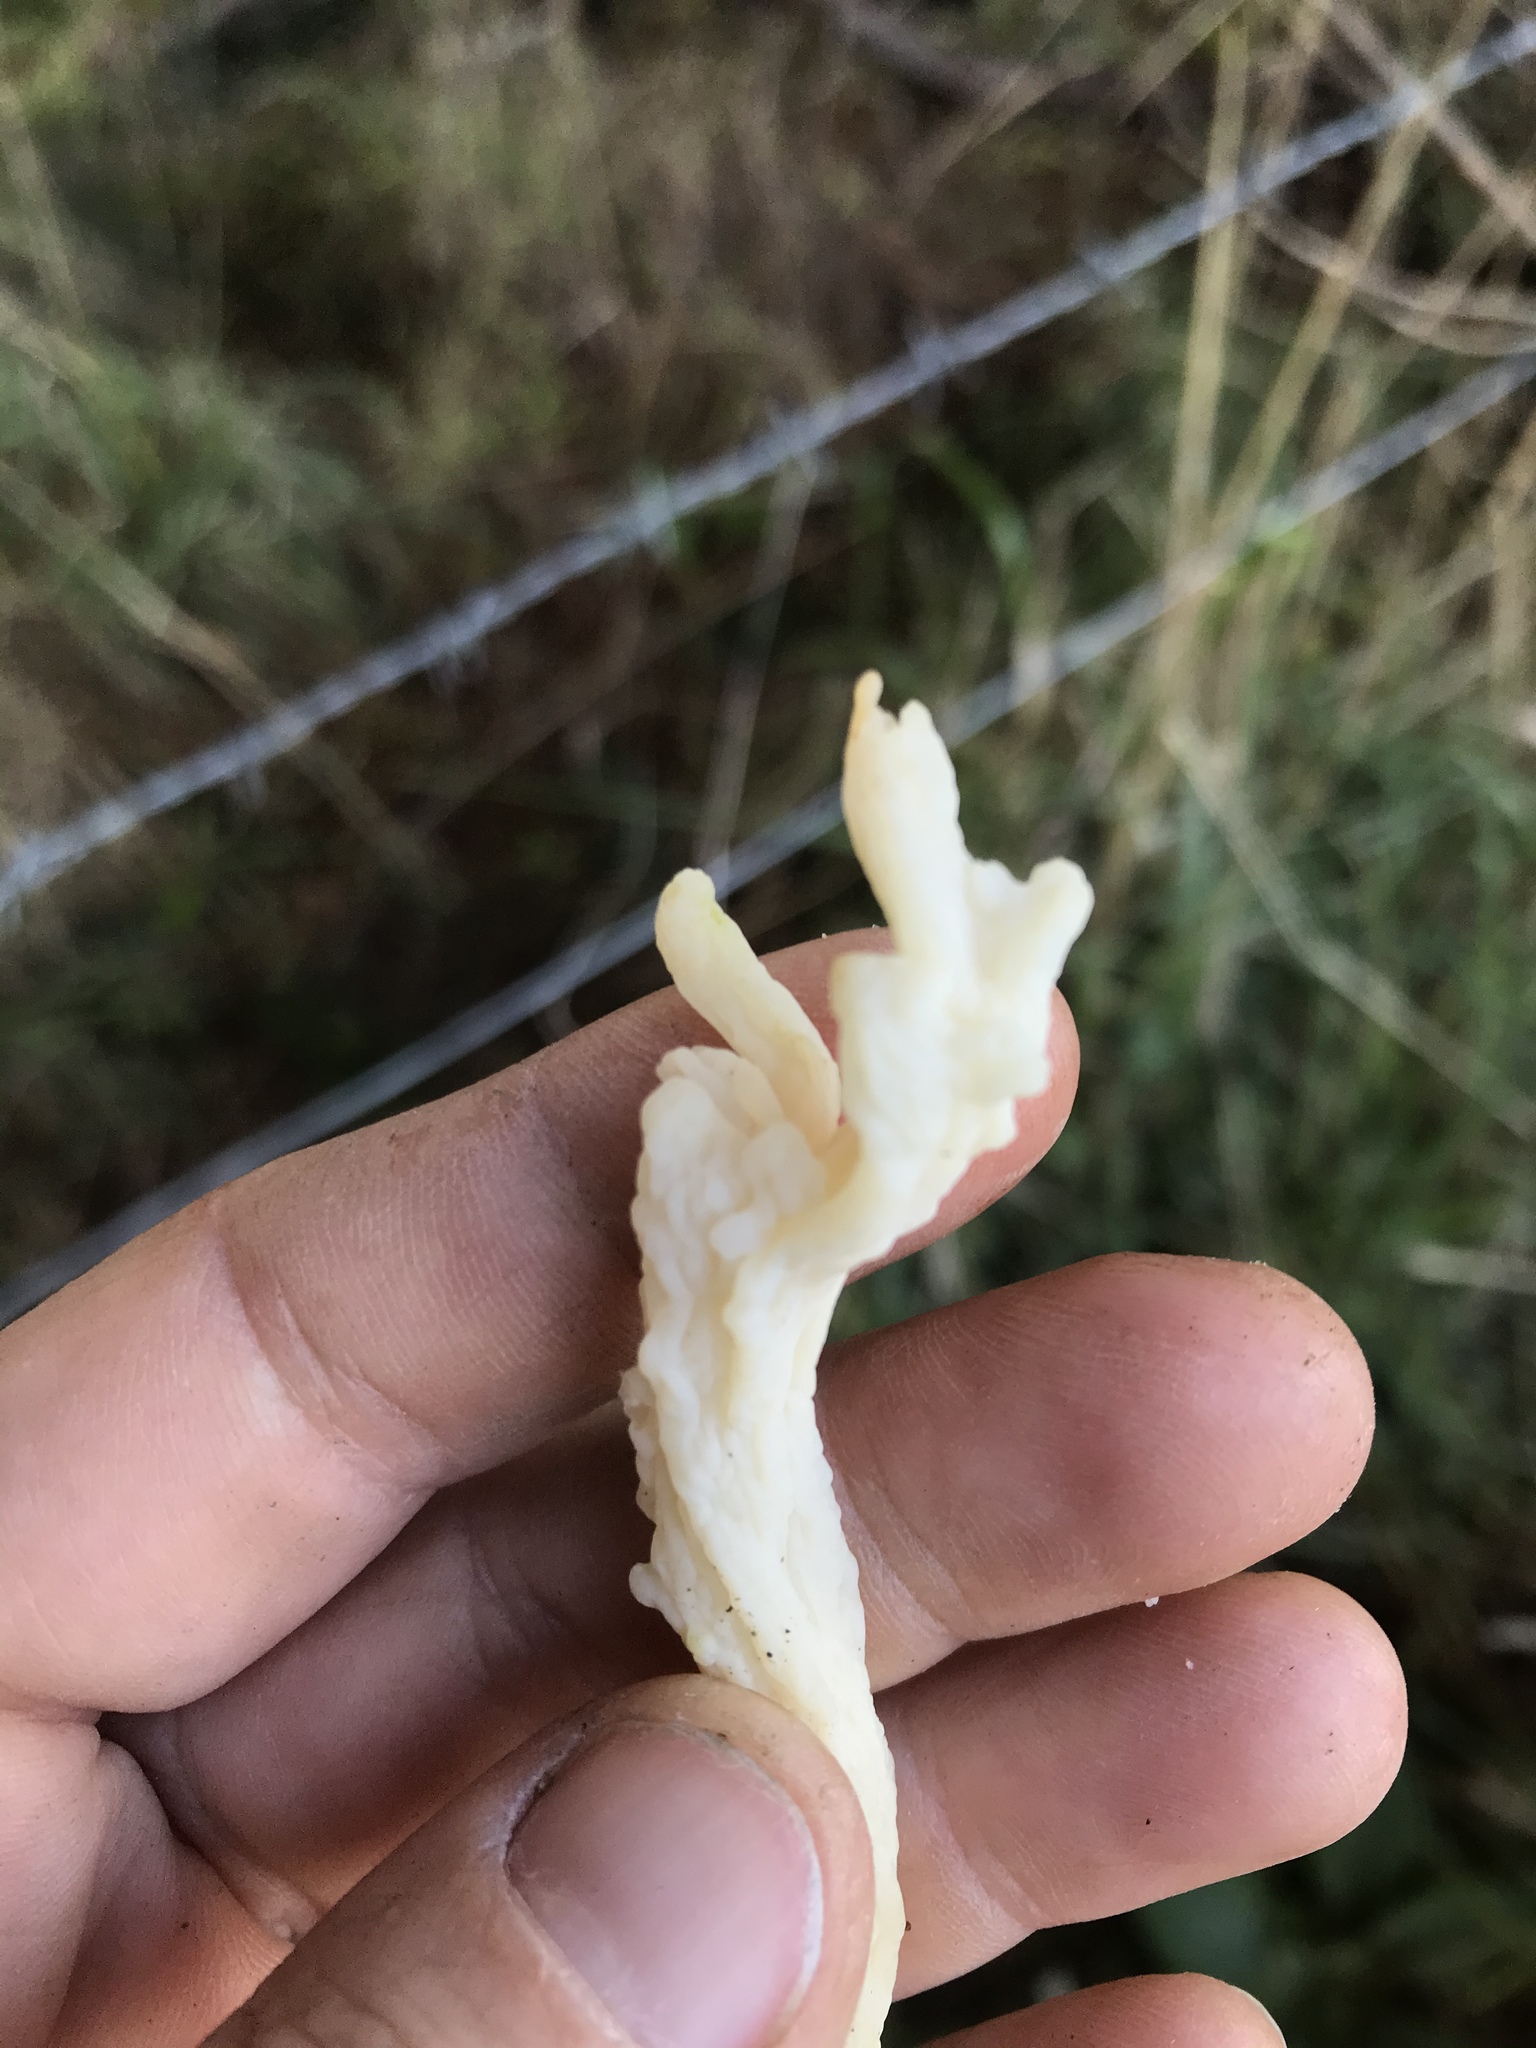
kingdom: Fungi
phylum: Basidiomycota
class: Agaricomycetes
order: Cantharellales
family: Hydnaceae
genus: Clavulina
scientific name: Clavulina rugosa
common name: Wrinkled club
